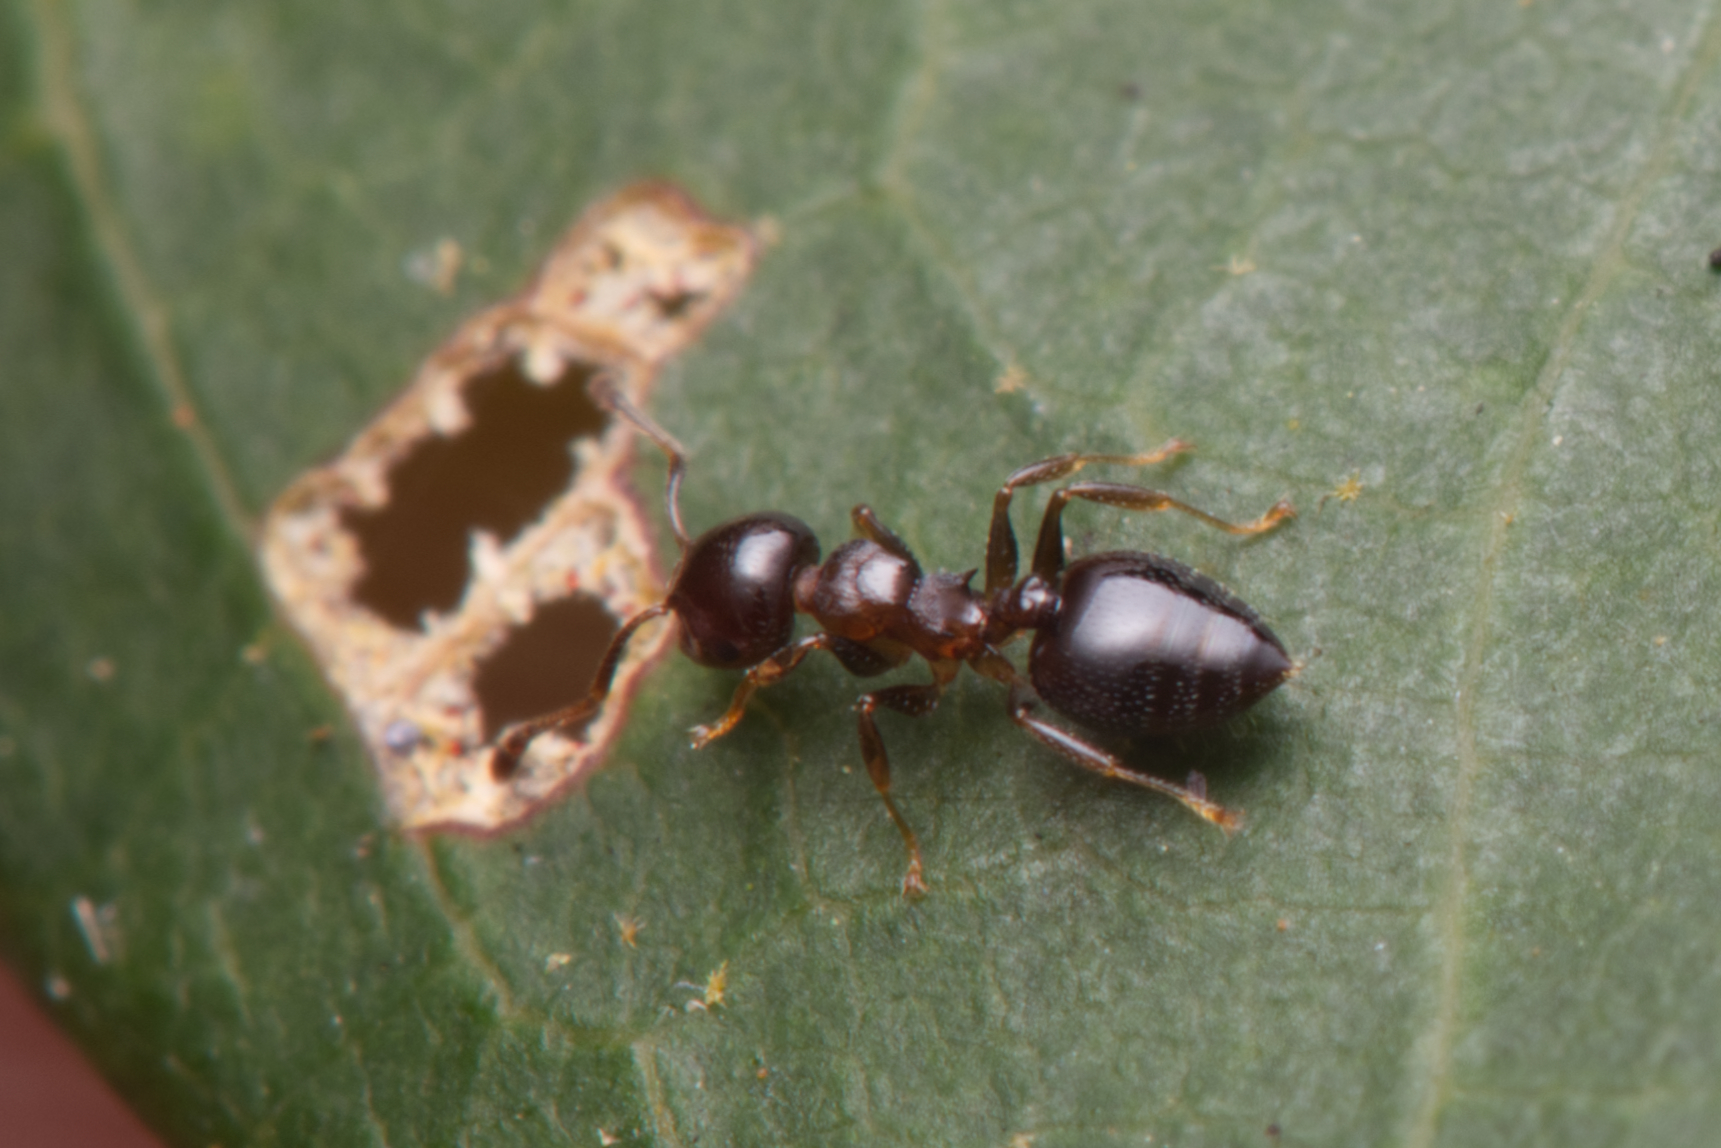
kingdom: Animalia
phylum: Arthropoda
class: Insecta
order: Hymenoptera
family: Formicidae
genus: Crematogaster
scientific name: Crematogaster cornigera
